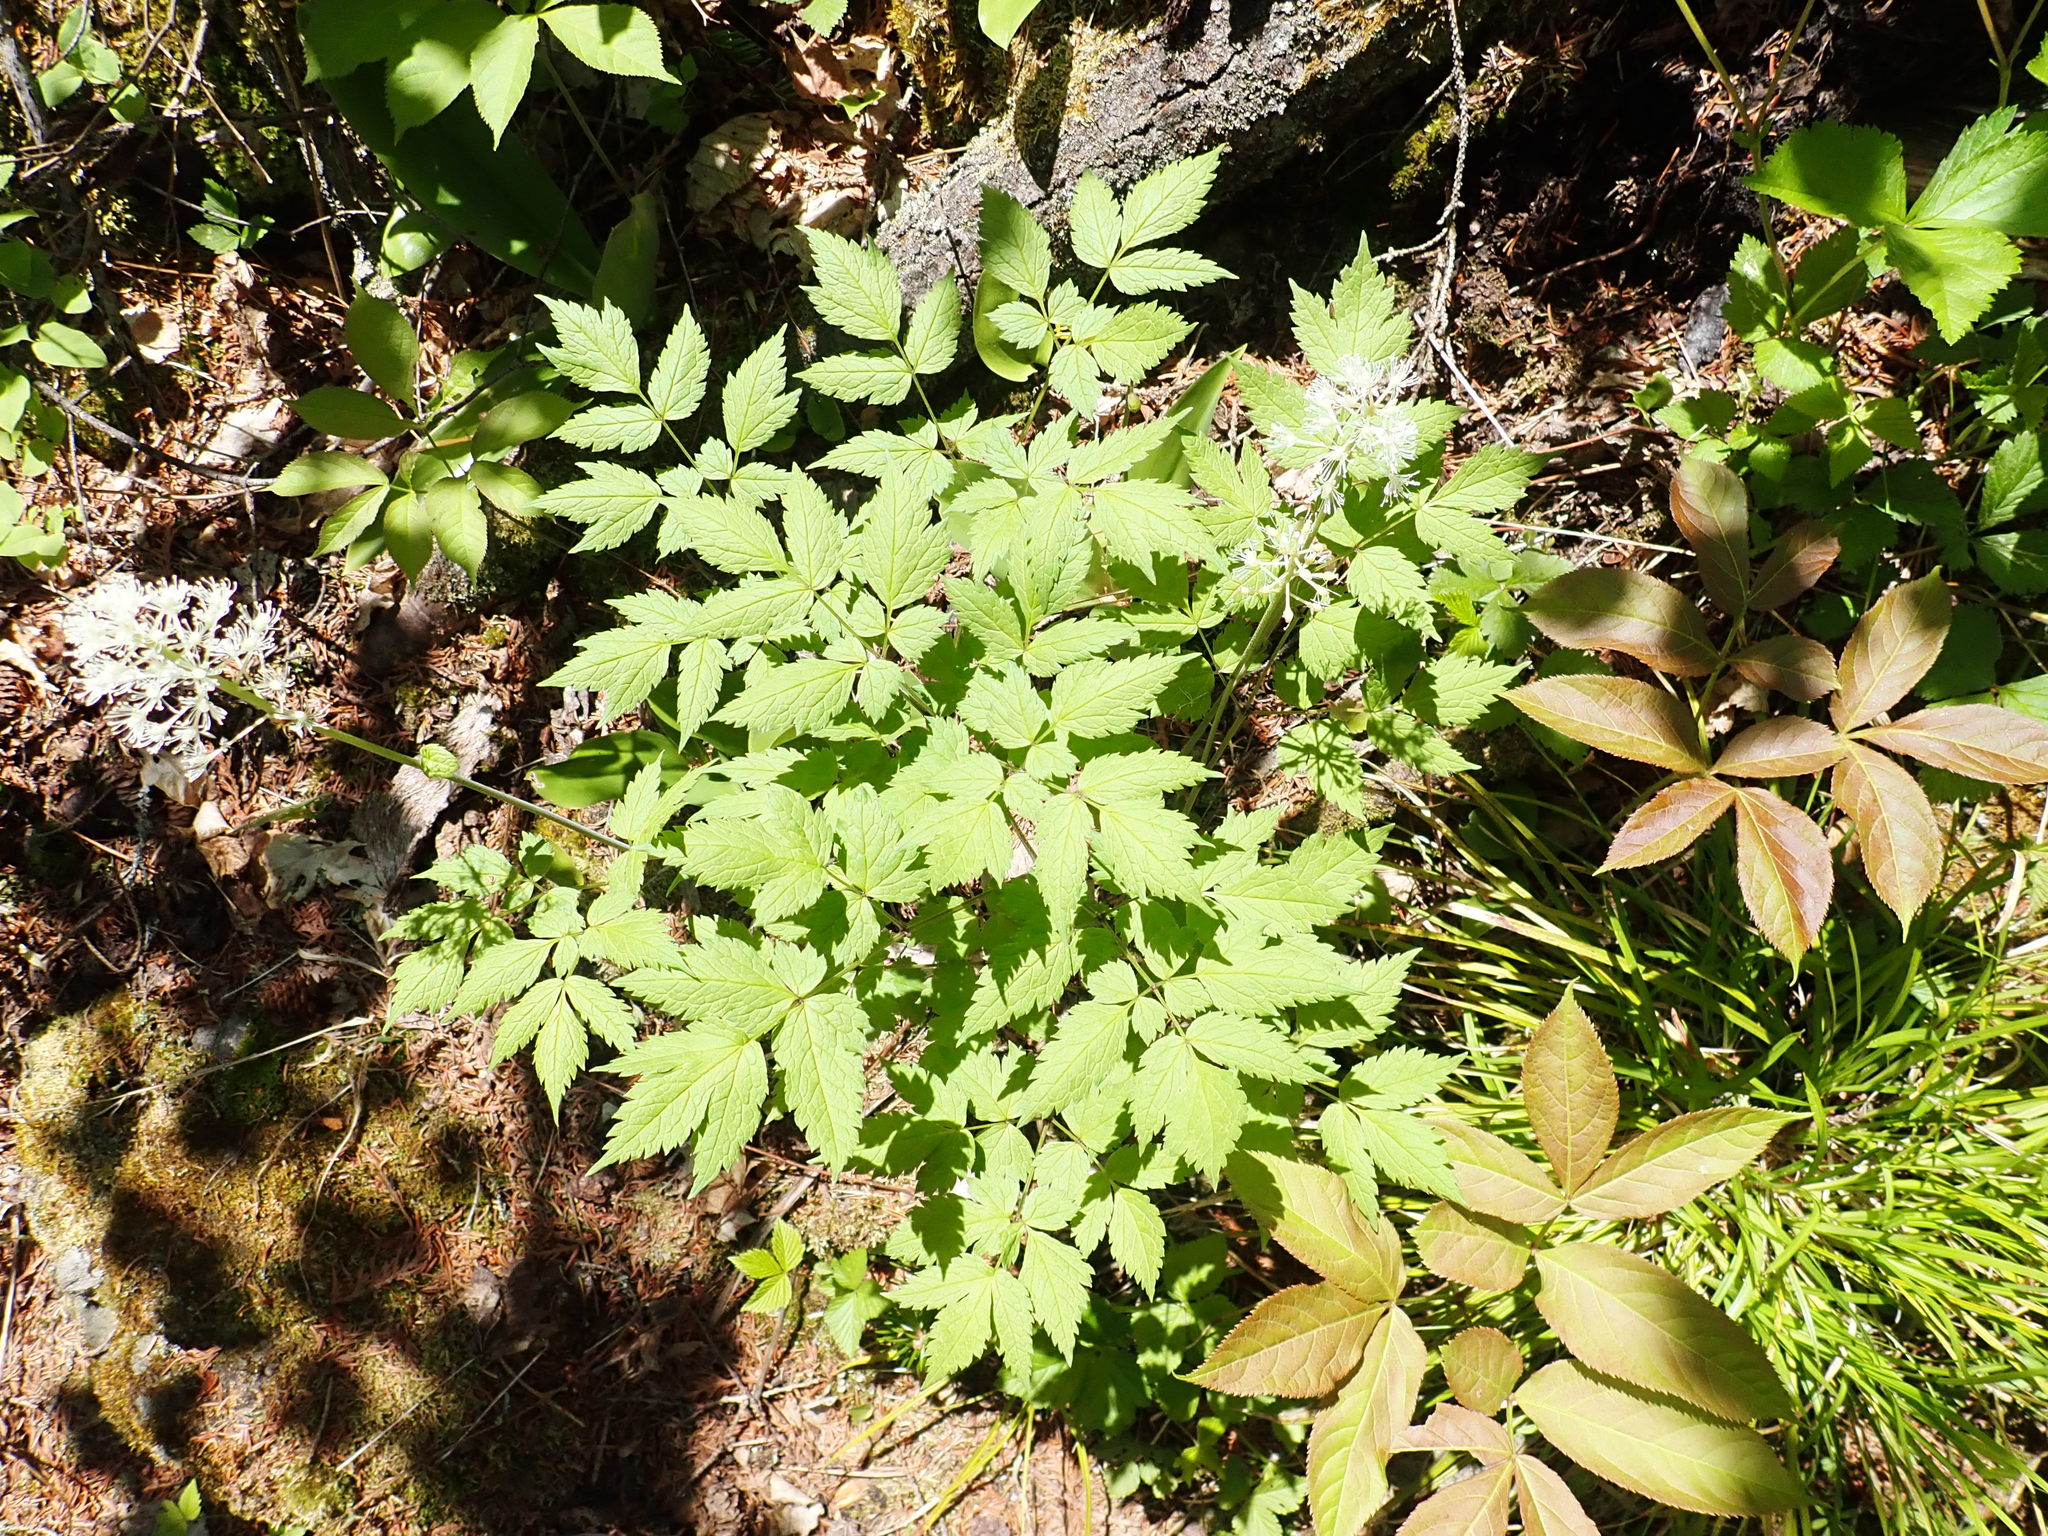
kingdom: Plantae
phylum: Tracheophyta
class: Magnoliopsida
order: Ranunculales
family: Ranunculaceae
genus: Actaea
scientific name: Actaea rubra
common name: Red baneberry
